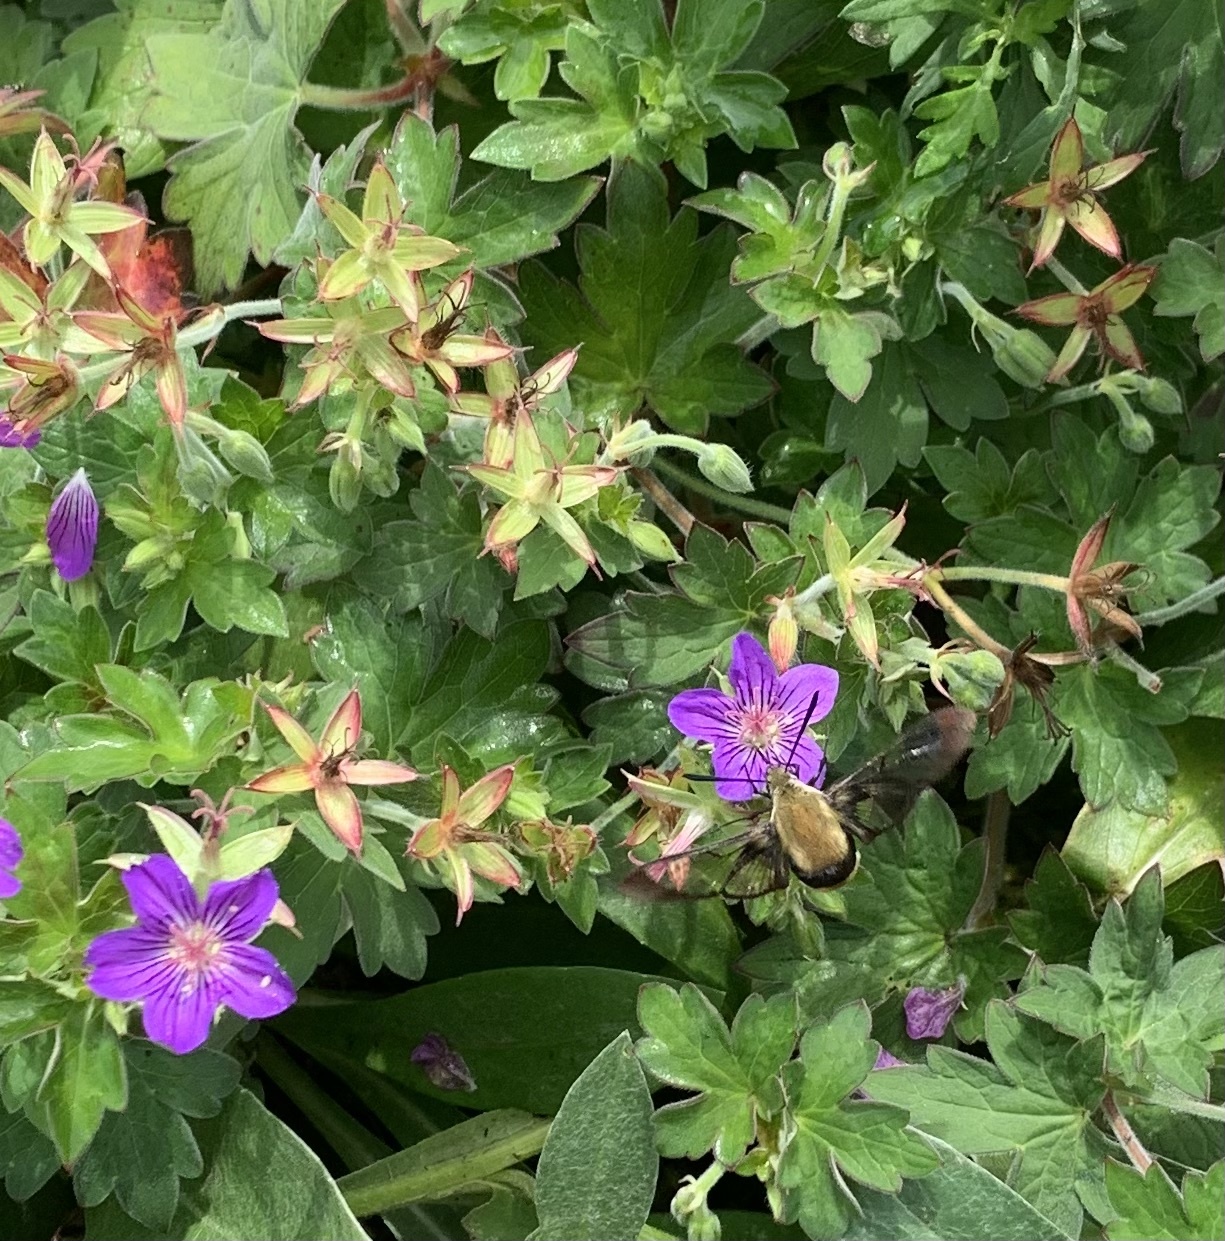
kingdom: Animalia
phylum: Arthropoda
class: Insecta
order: Lepidoptera
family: Sphingidae
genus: Hemaris
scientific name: Hemaris diffinis
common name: Bumblebee moth
